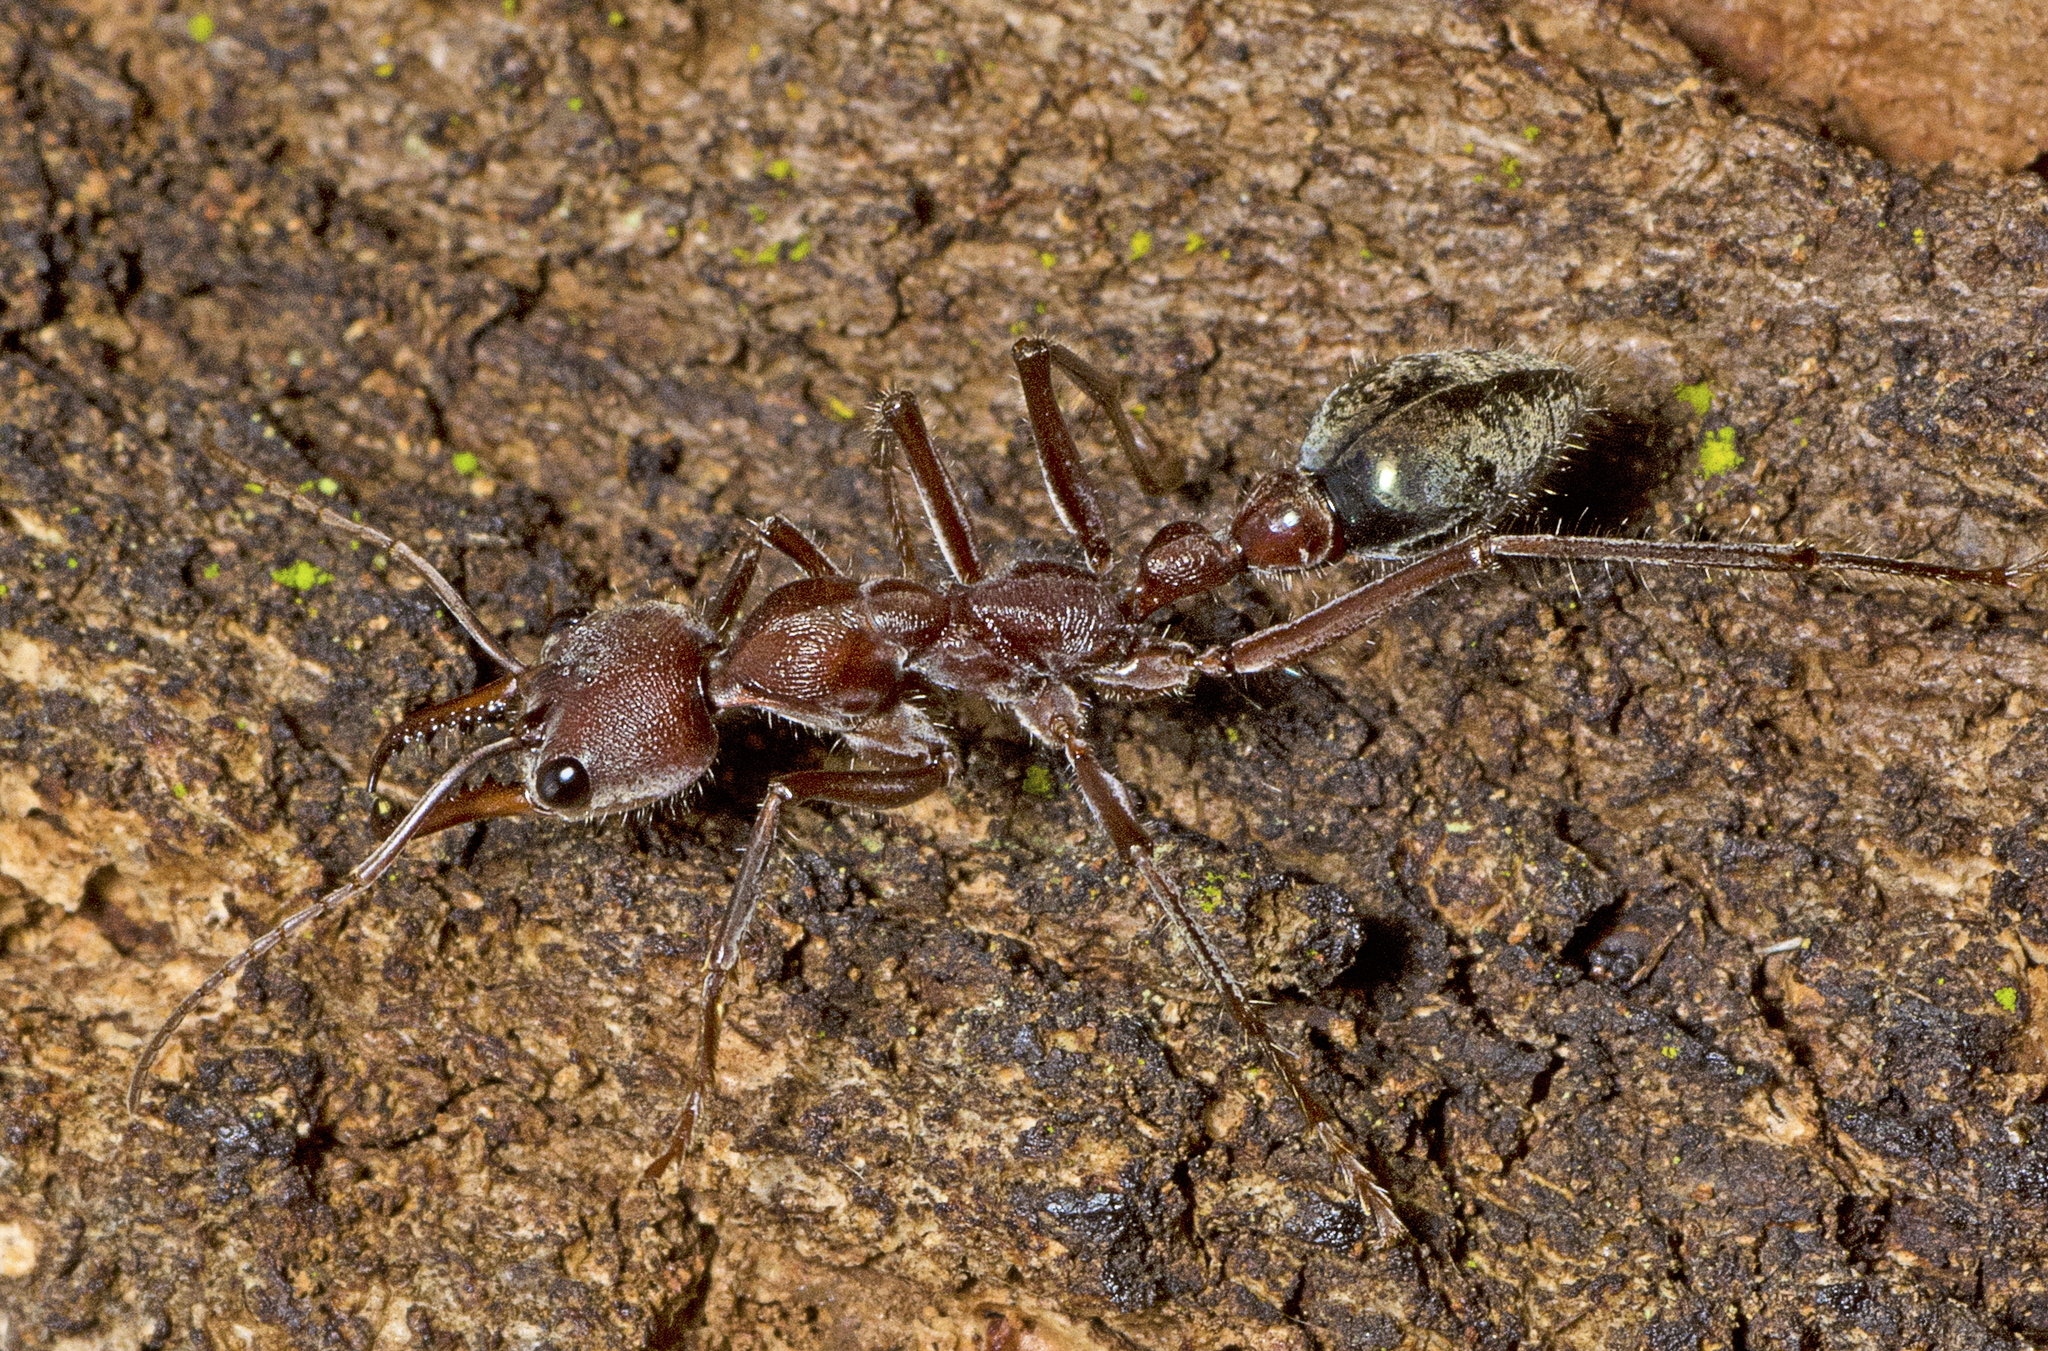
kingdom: Animalia
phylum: Arthropoda
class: Insecta
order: Hymenoptera
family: Formicidae
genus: Myrmecia
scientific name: Myrmecia comata
